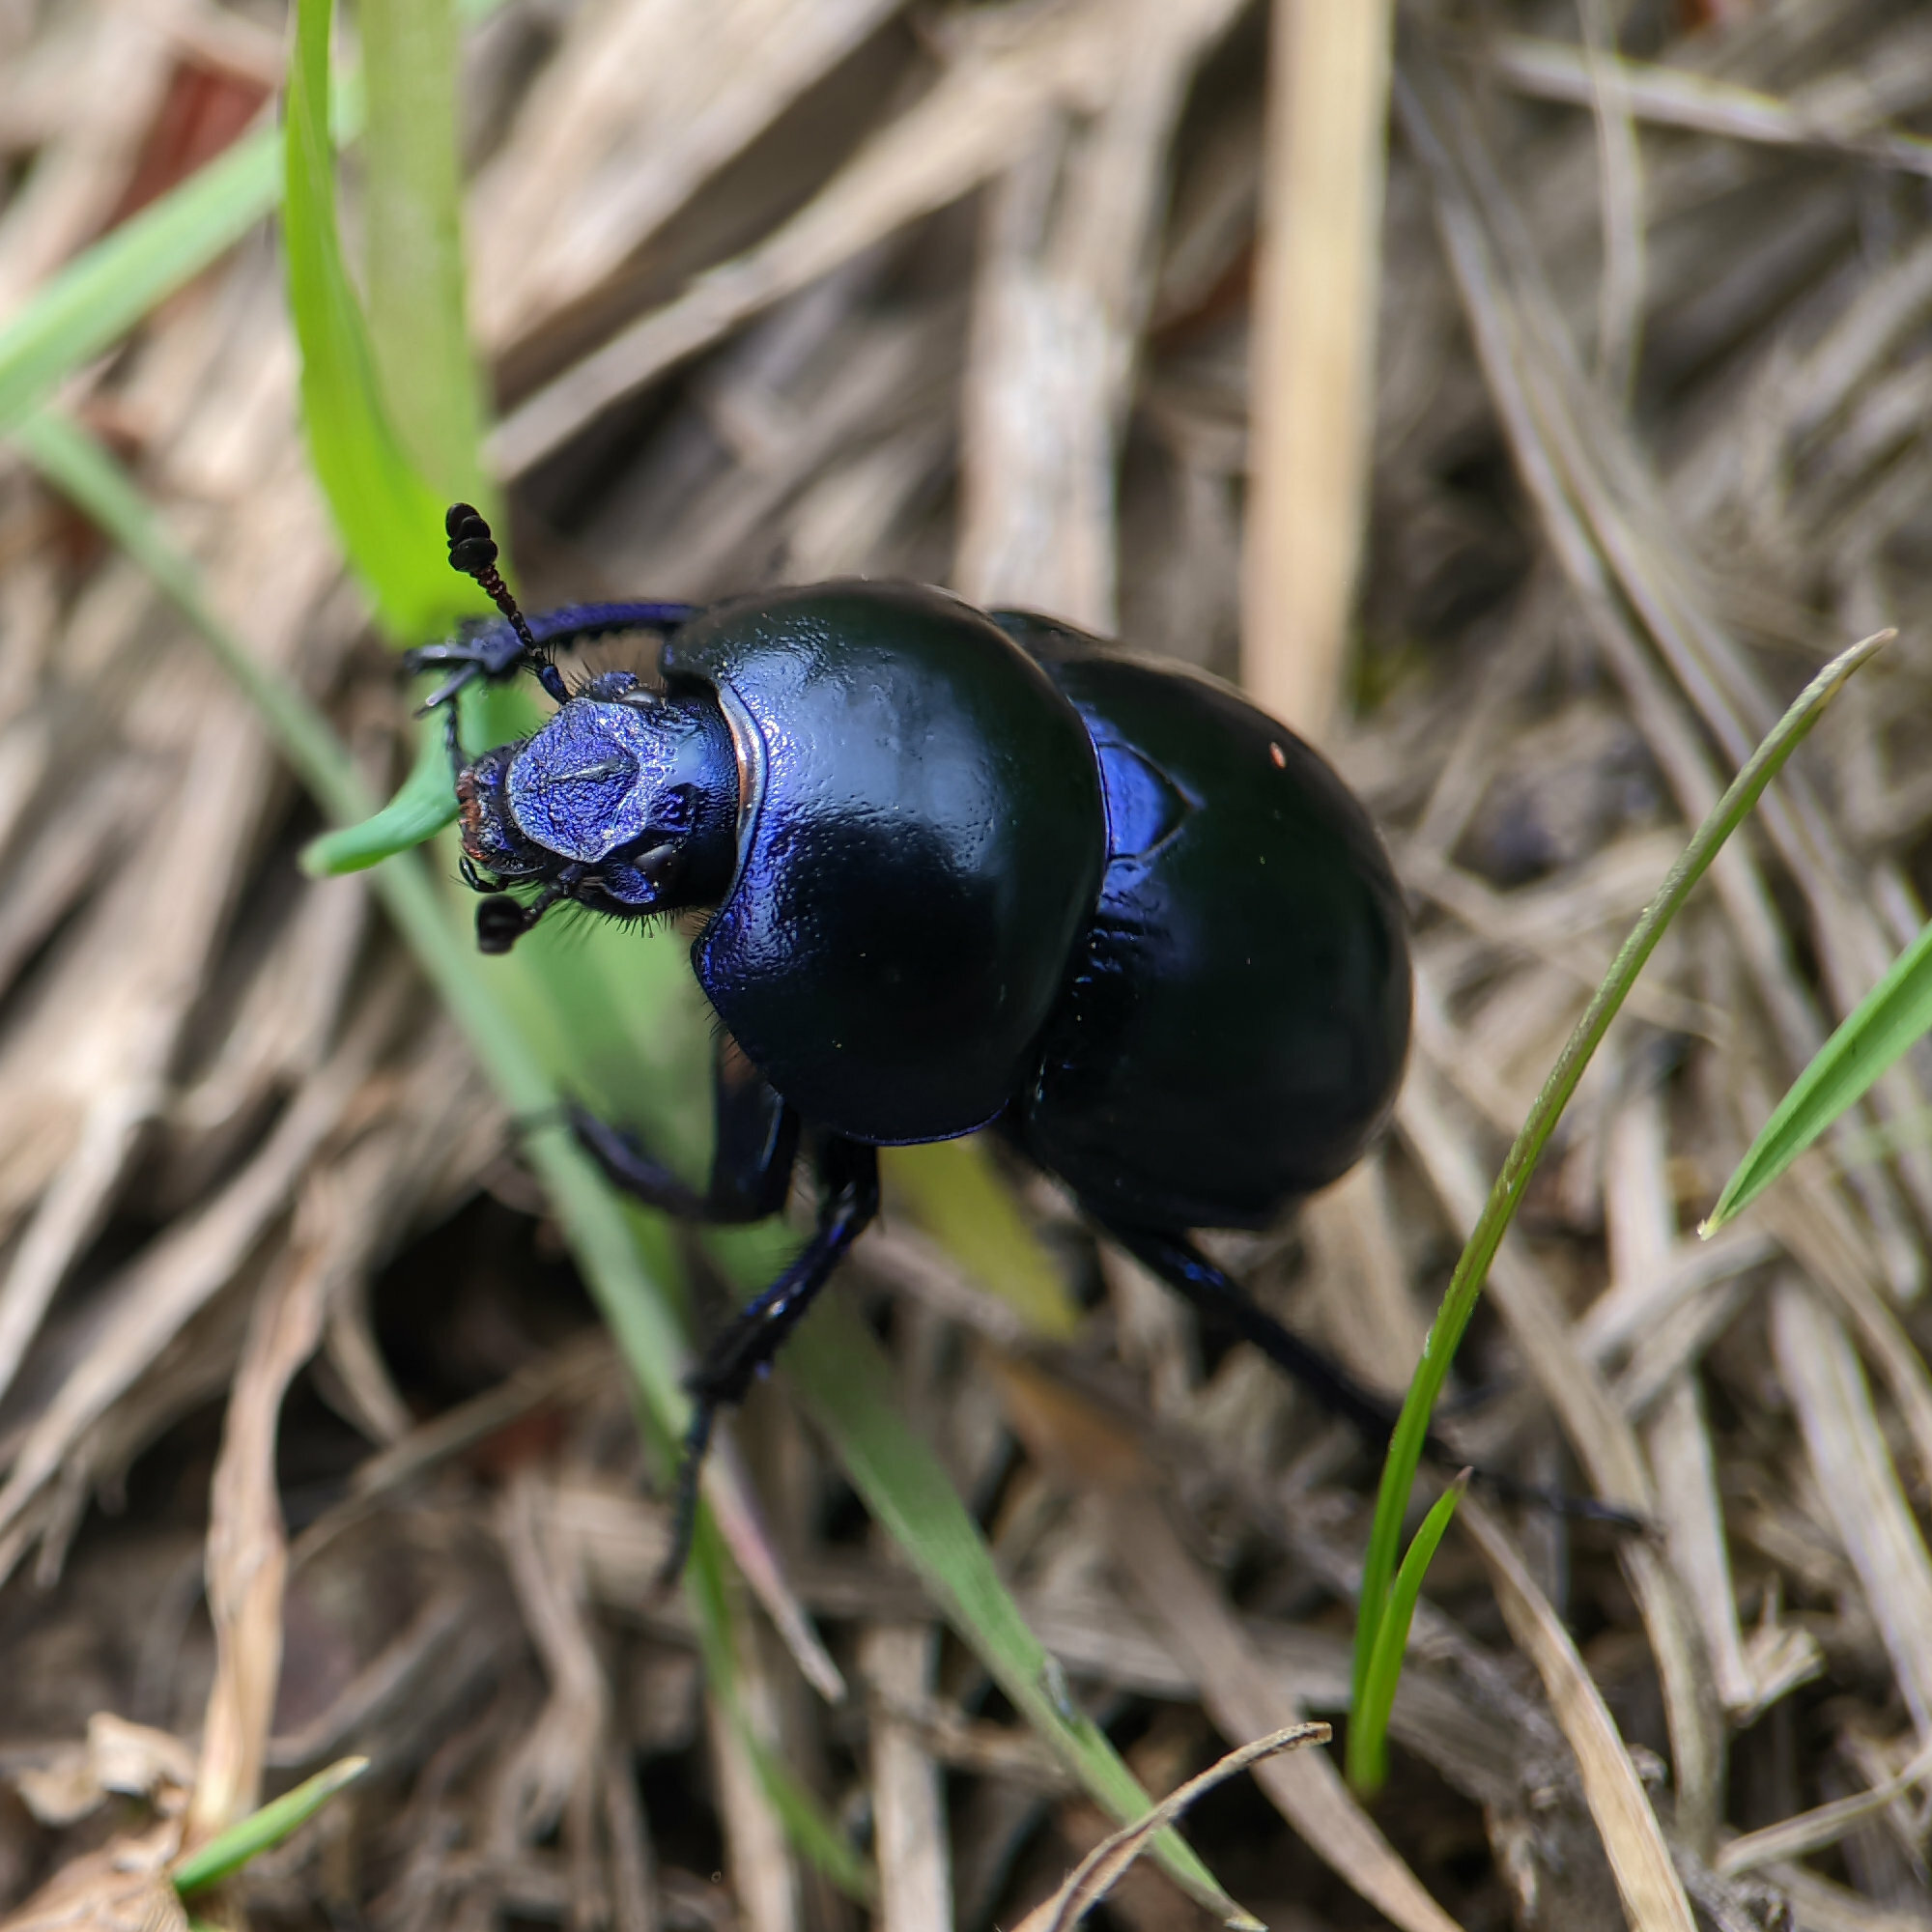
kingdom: Animalia
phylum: Arthropoda
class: Insecta
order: Coleoptera
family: Geotrupidae
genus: Trypocopris
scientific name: Trypocopris vernalis
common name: Spring dumbledor
